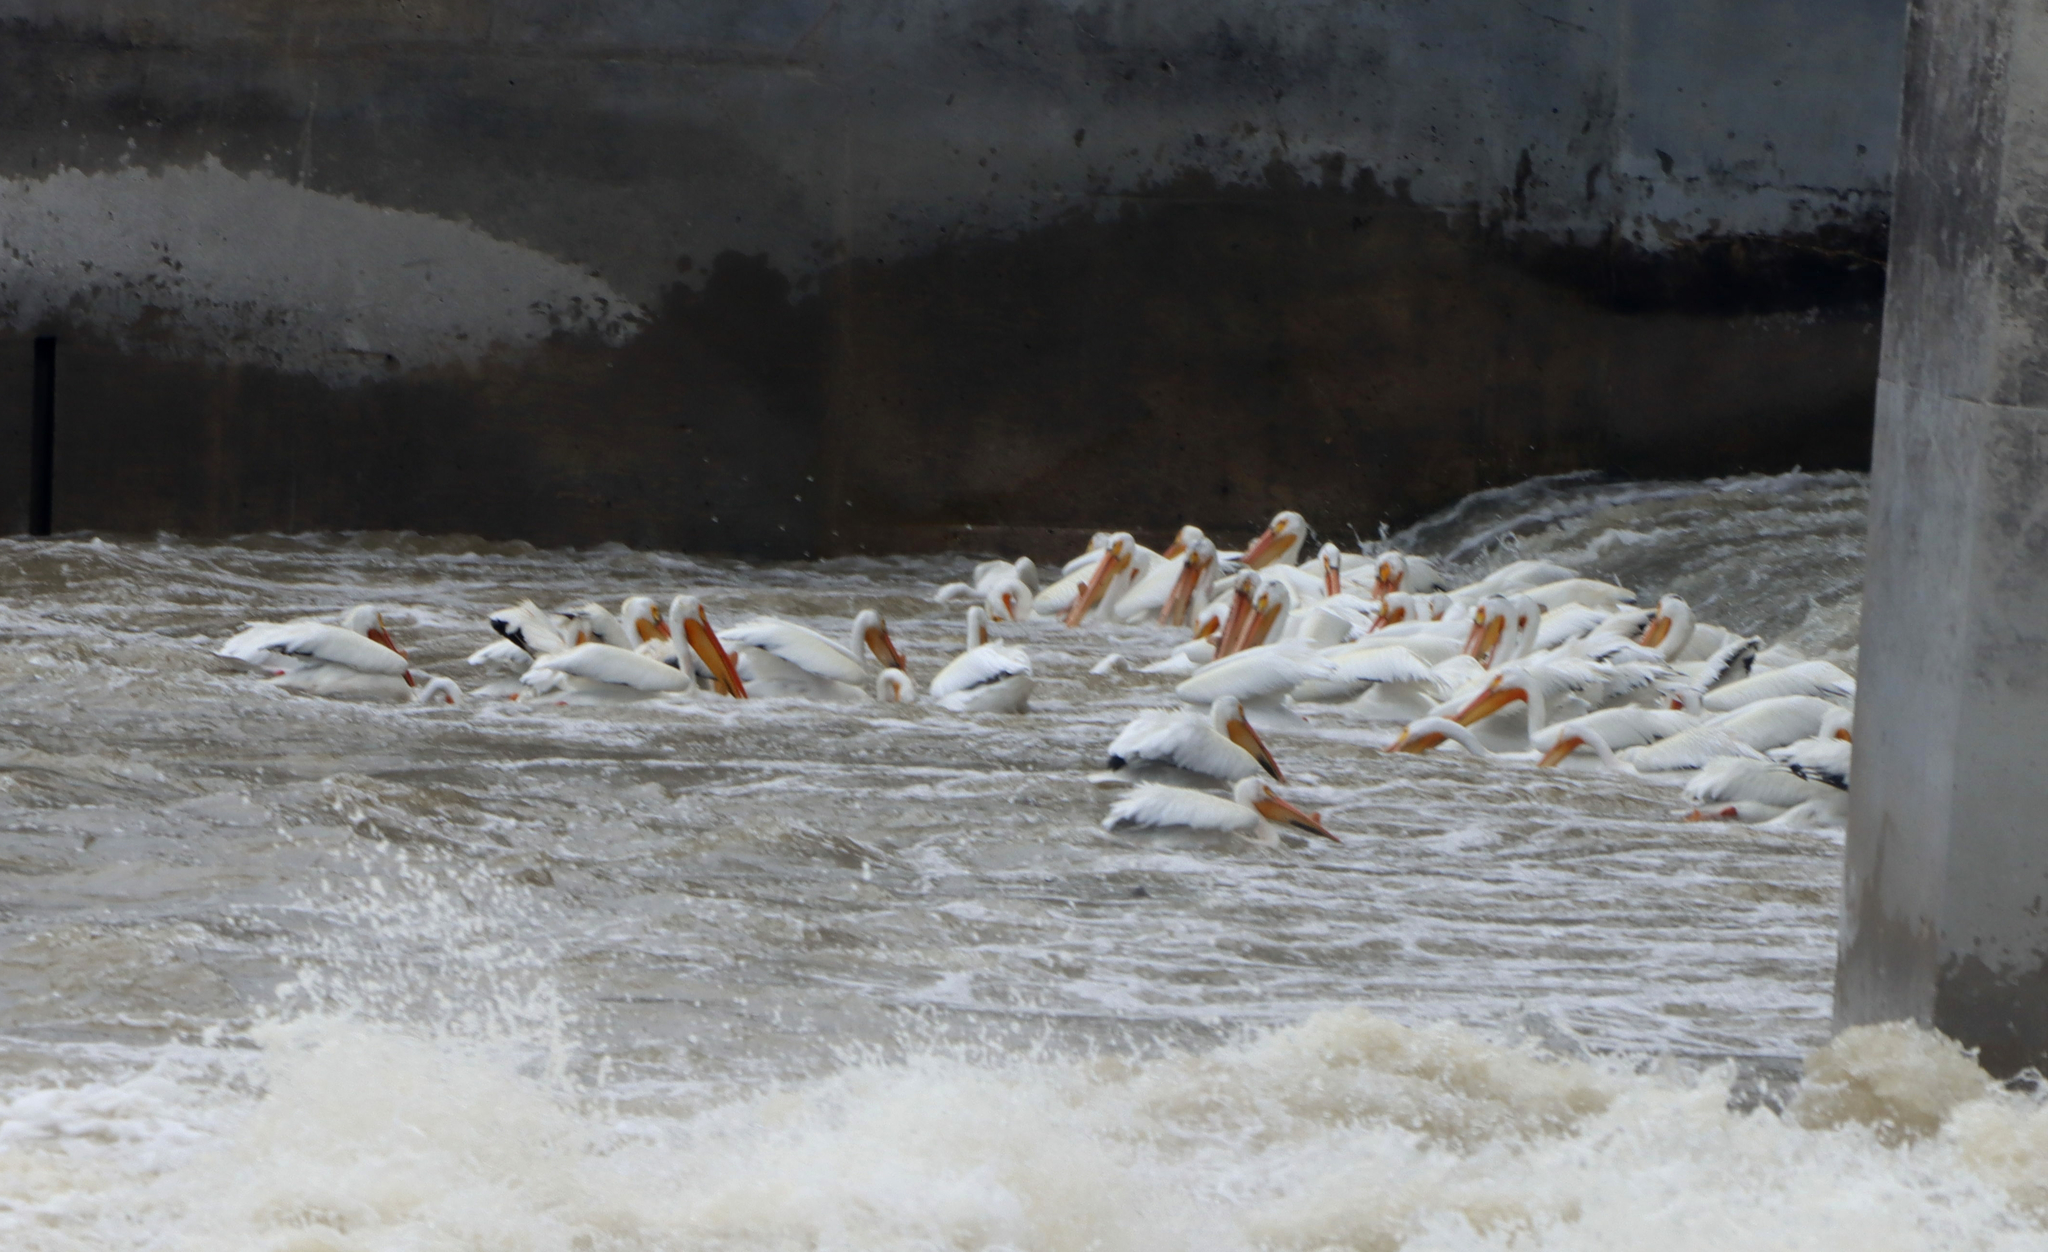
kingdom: Animalia
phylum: Chordata
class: Aves
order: Pelecaniformes
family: Pelecanidae
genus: Pelecanus
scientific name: Pelecanus erythrorhynchos
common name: American white pelican
